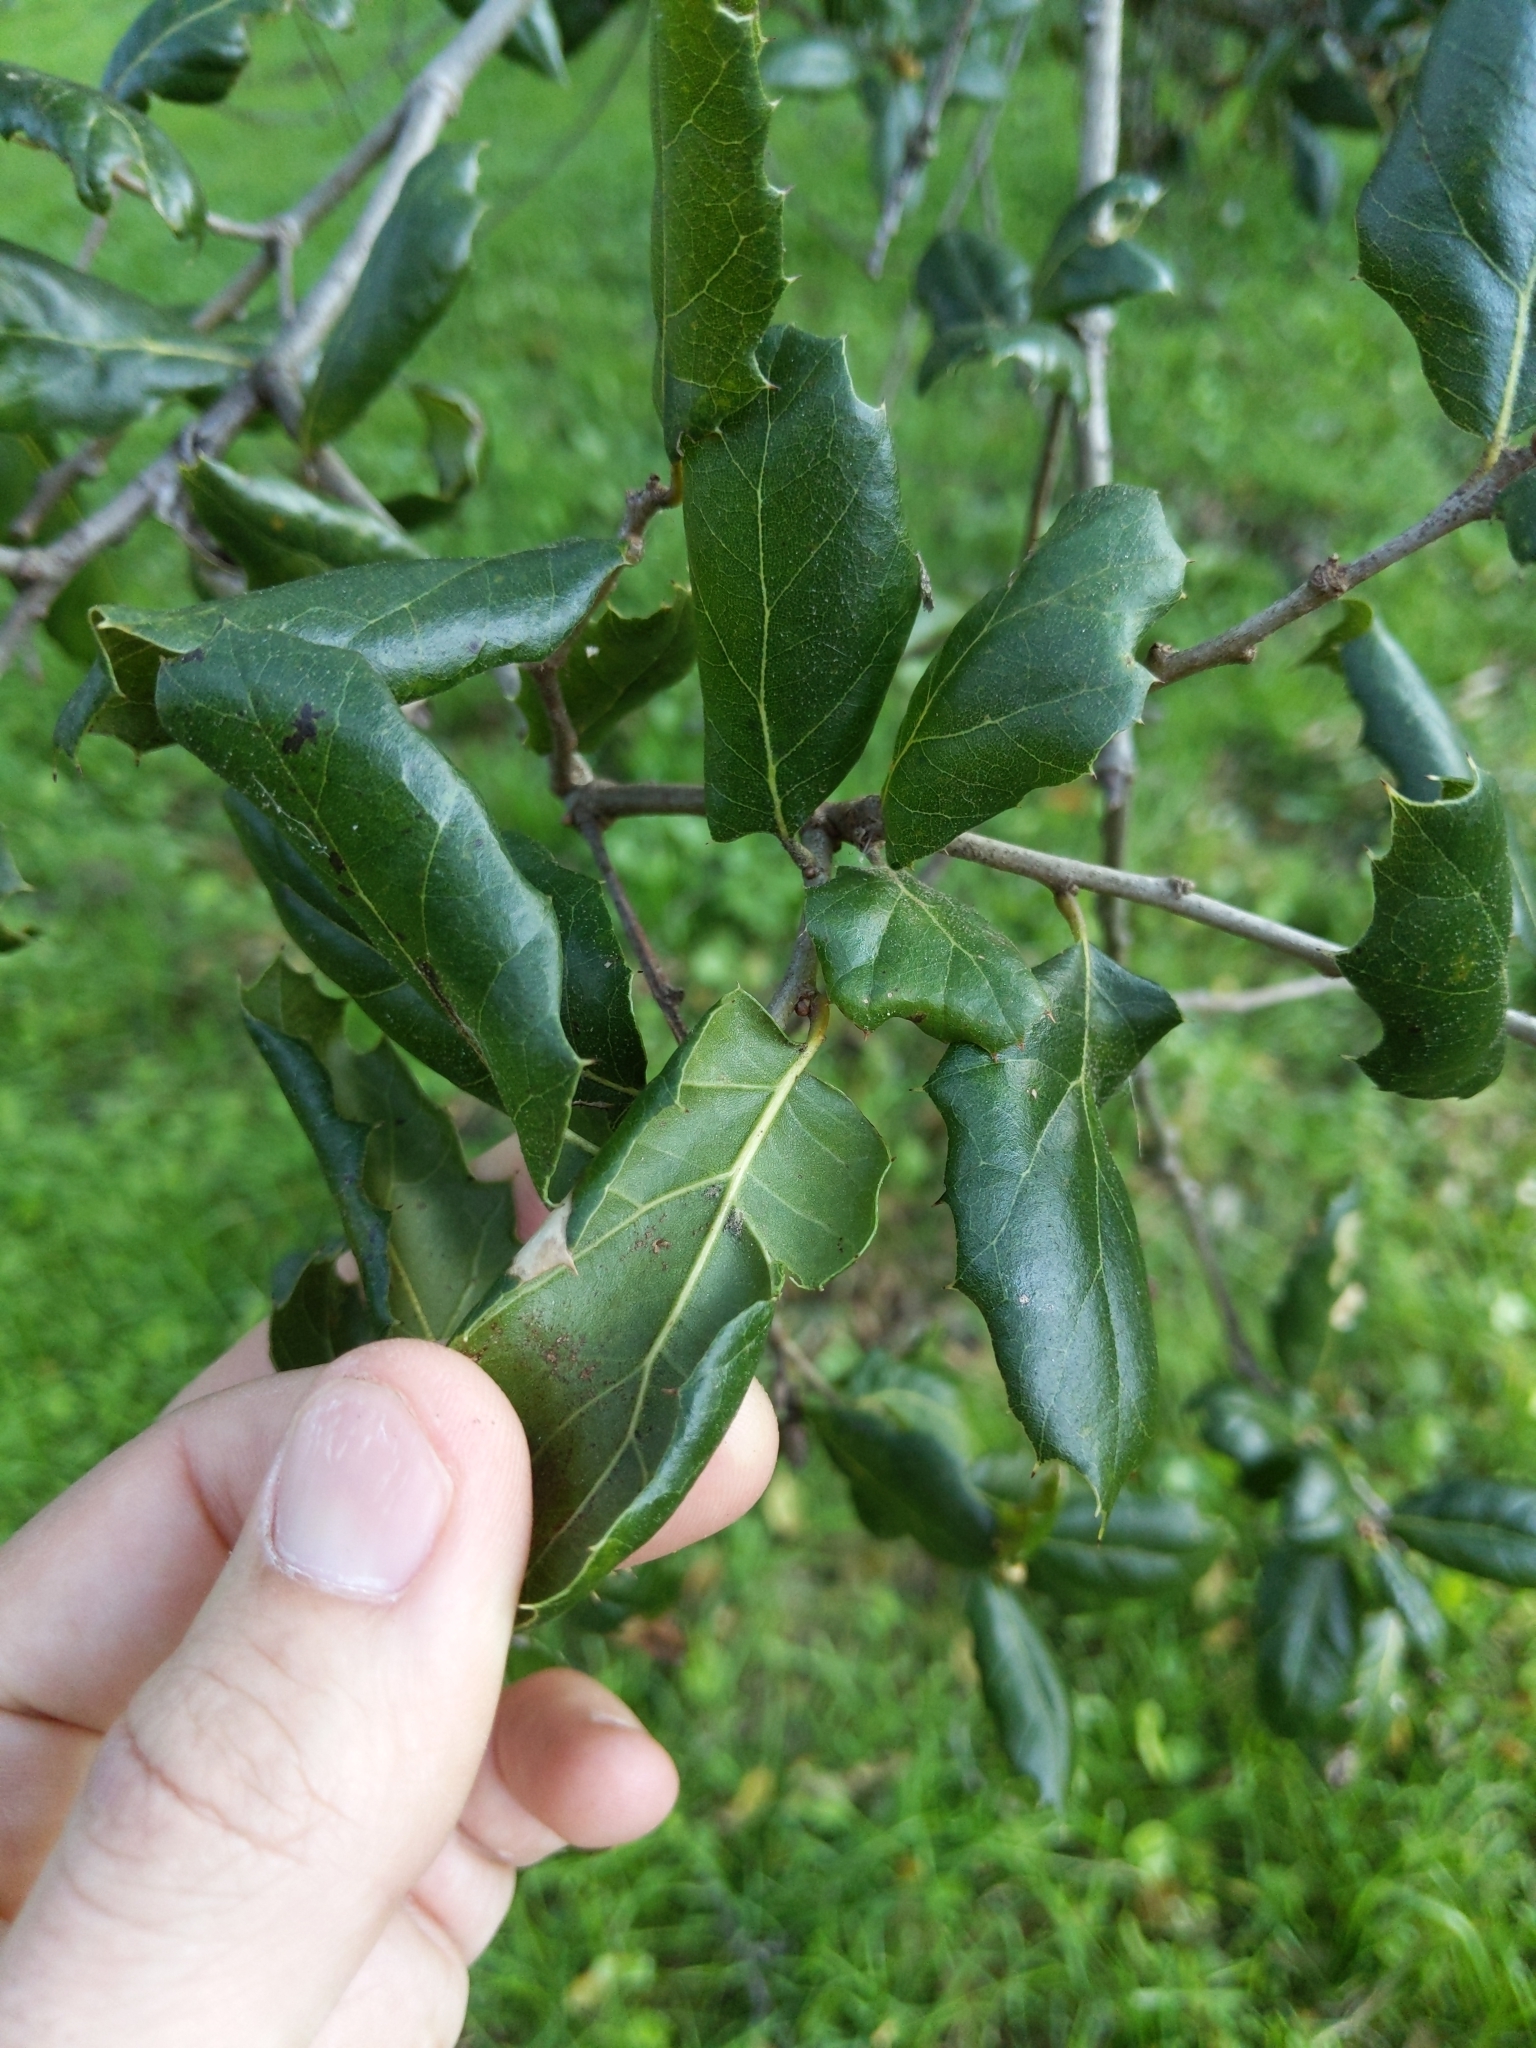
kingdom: Plantae
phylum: Tracheophyta
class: Magnoliopsida
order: Fagales
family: Fagaceae
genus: Quercus
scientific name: Quercus agrifolia
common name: California live oak
